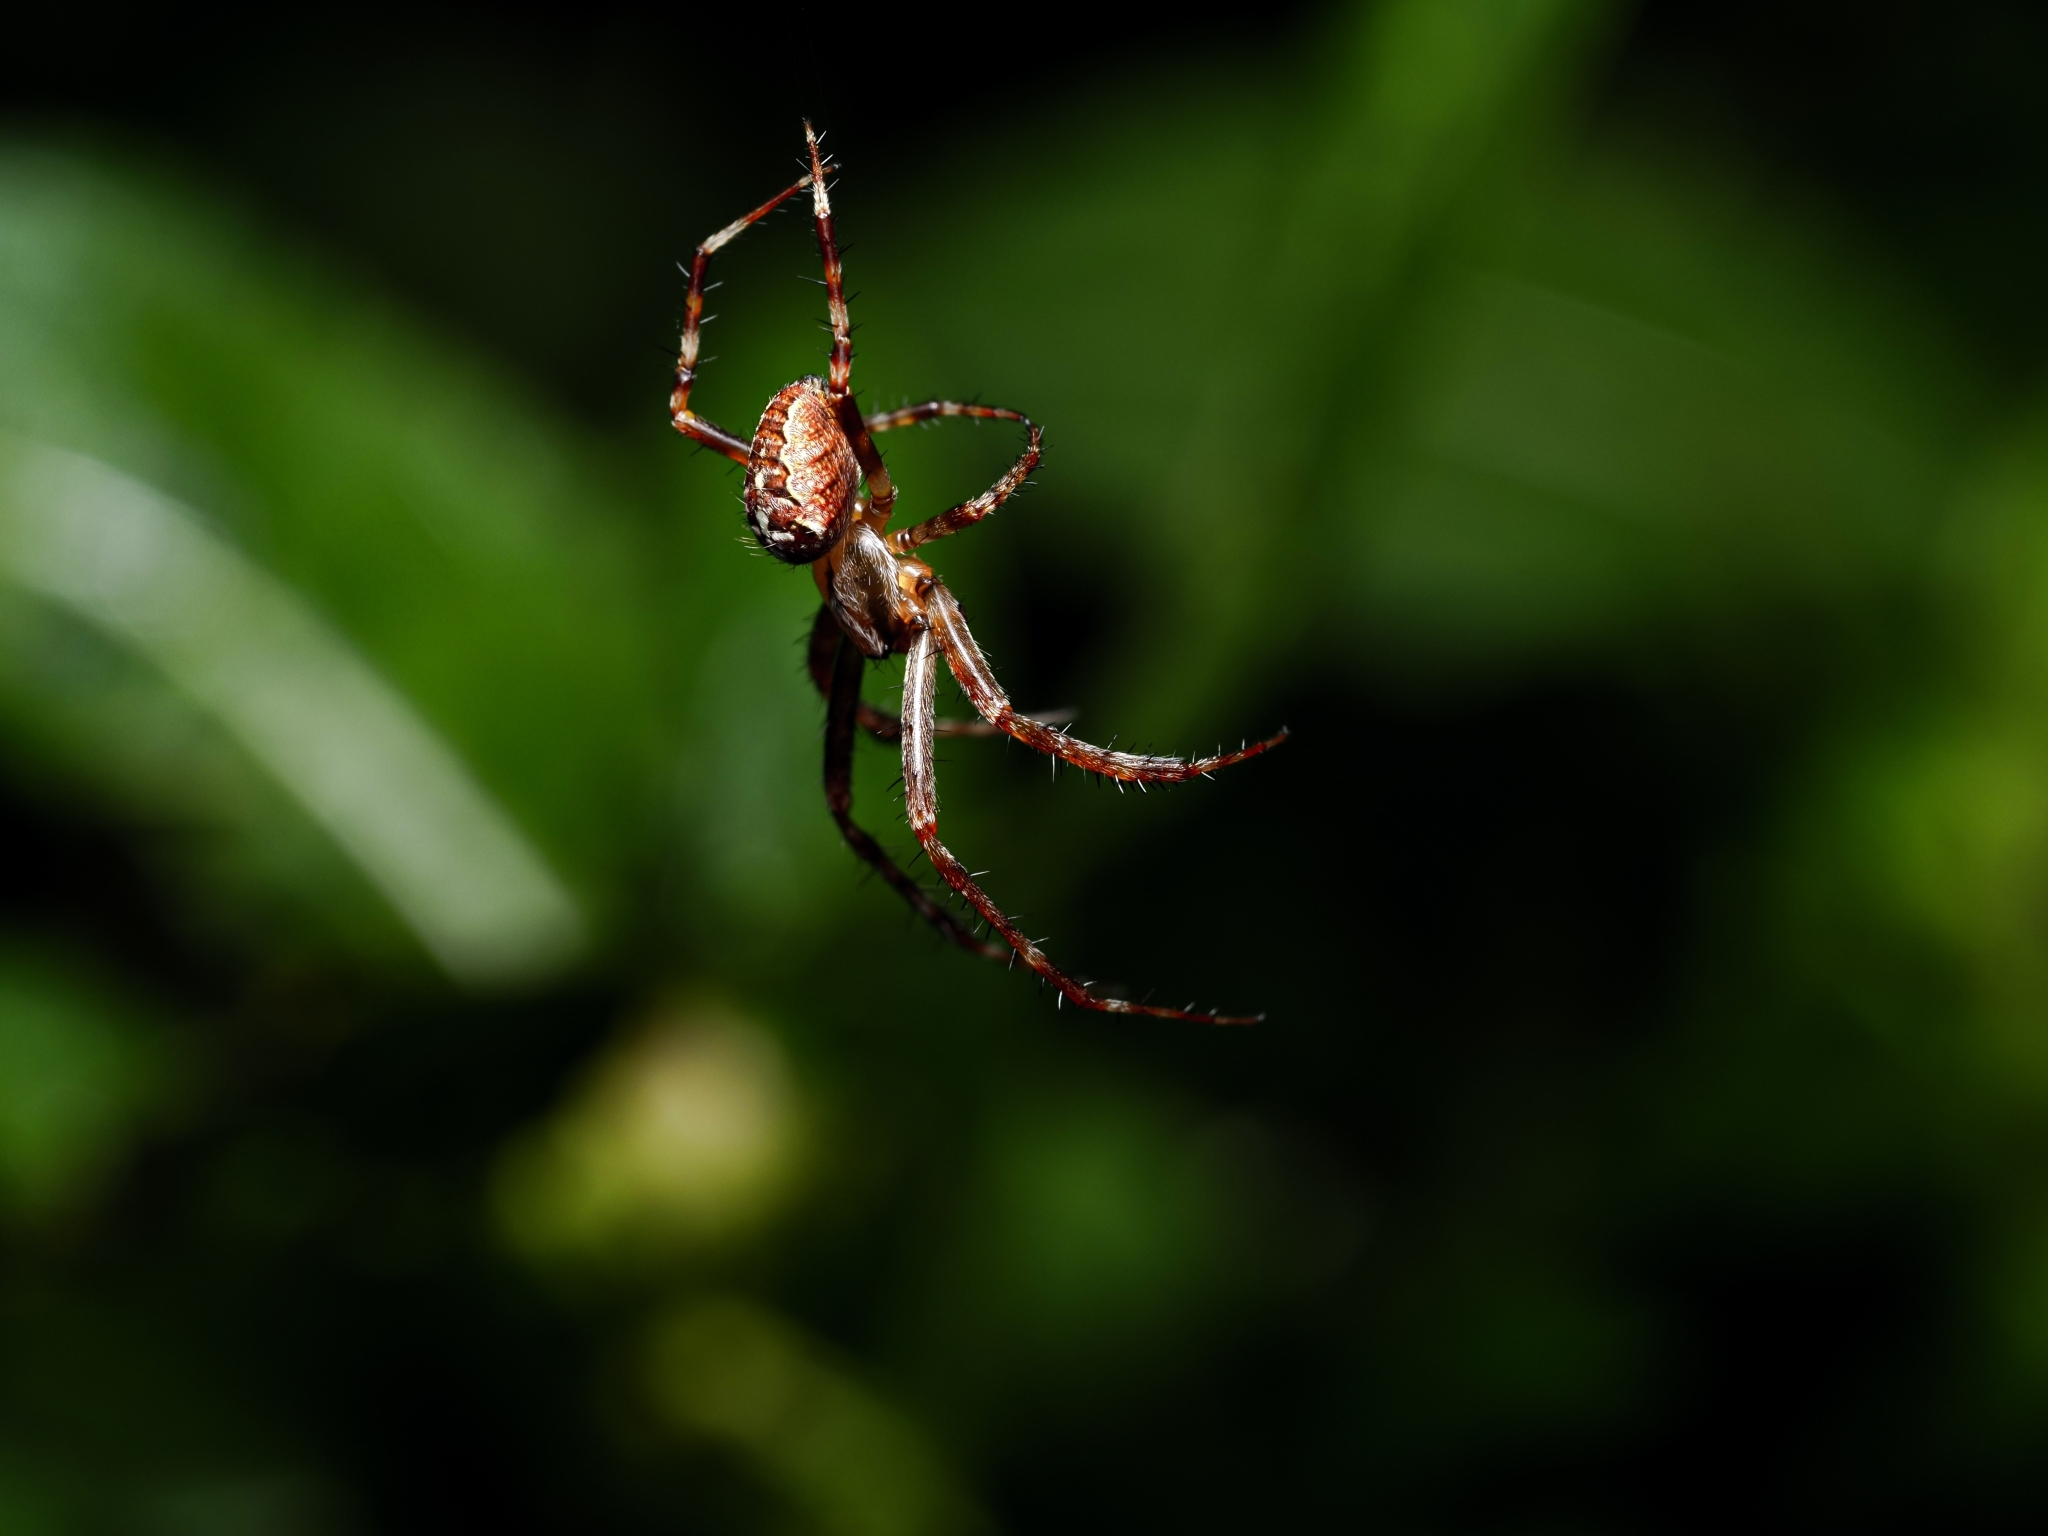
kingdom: Animalia
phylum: Arthropoda
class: Arachnida
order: Araneae
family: Araneidae
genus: Araneus
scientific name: Araneus diadematus
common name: Cross orbweaver
